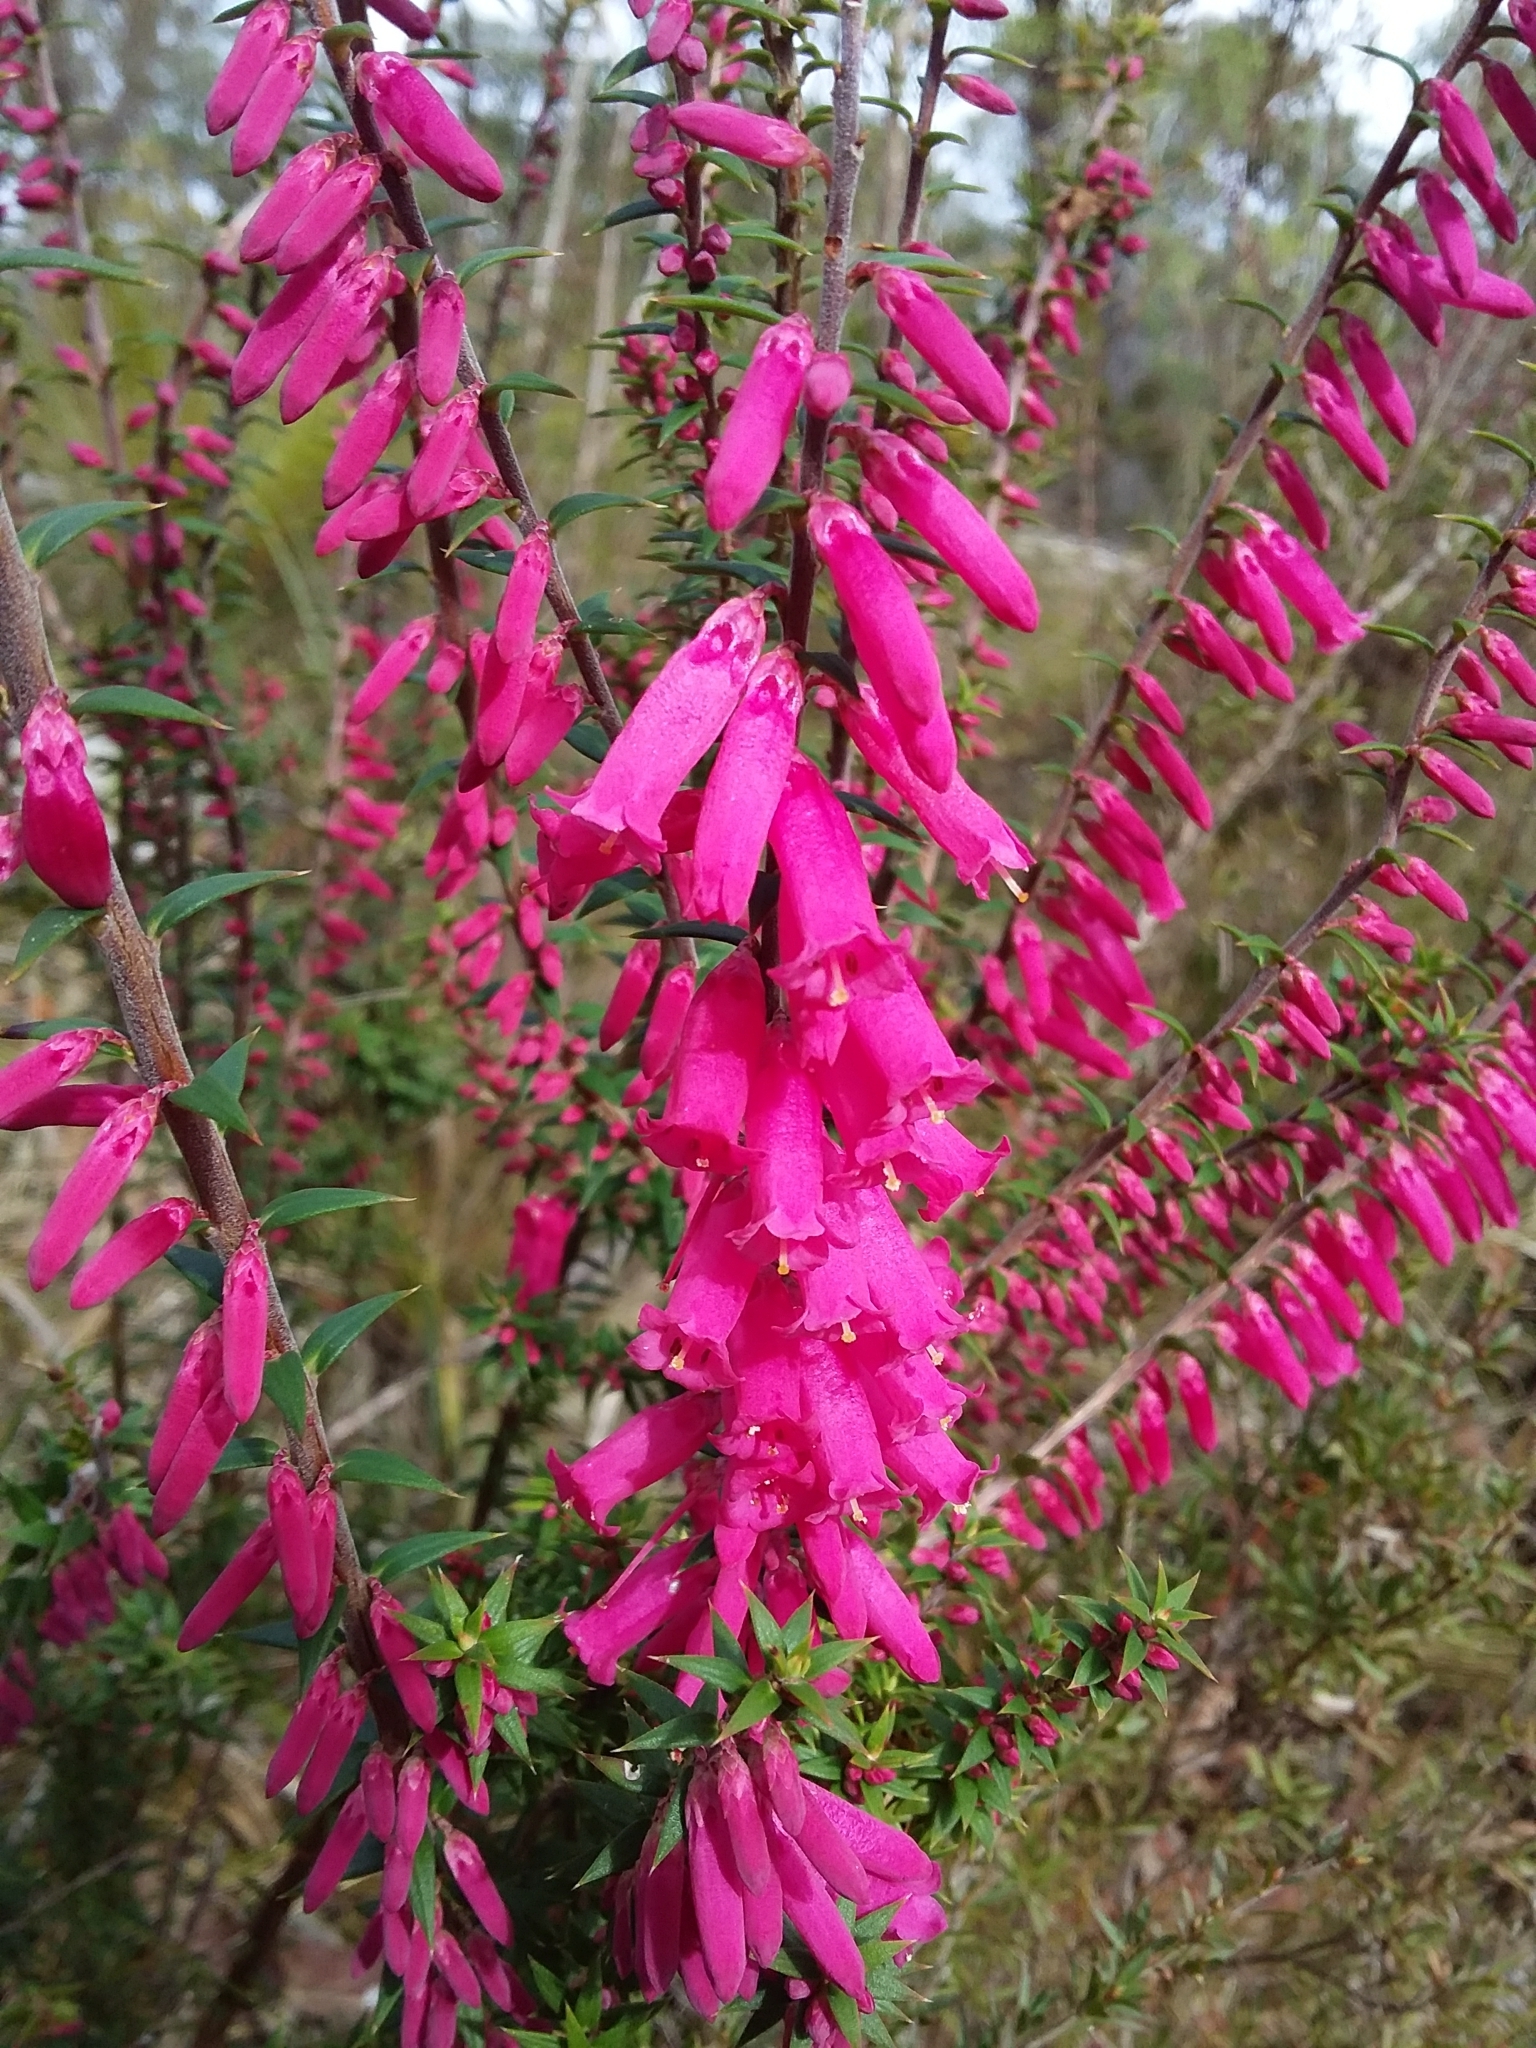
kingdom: Plantae
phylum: Tracheophyta
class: Magnoliopsida
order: Ericales
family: Ericaceae
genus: Epacris
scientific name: Epacris impressa
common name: Common-heath
